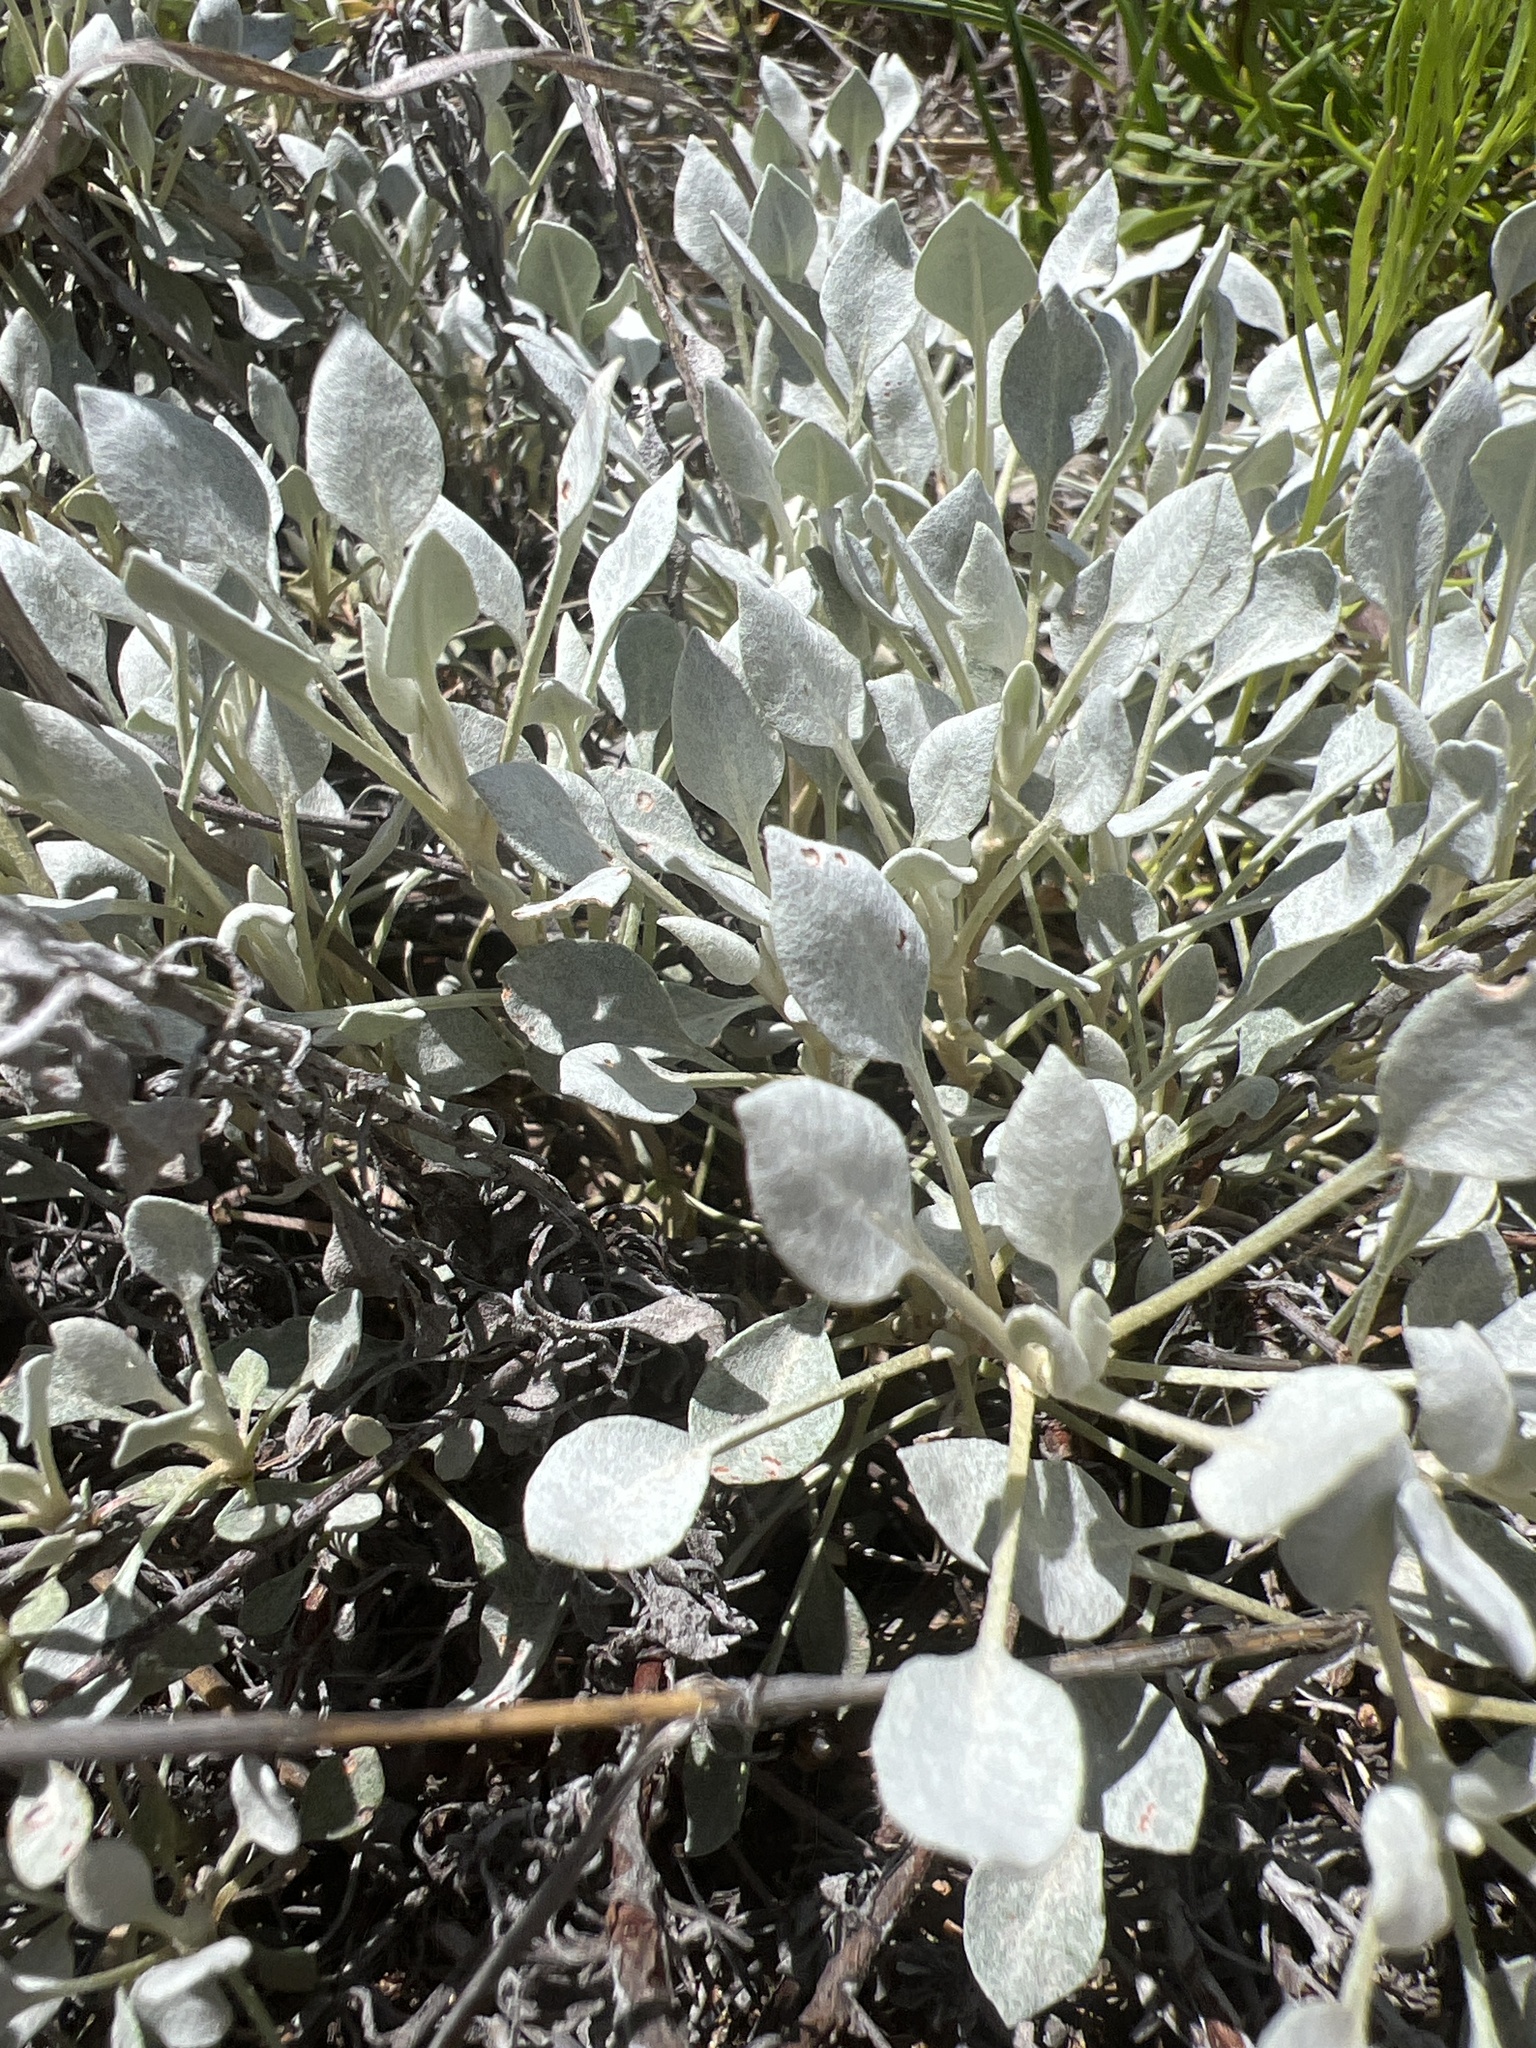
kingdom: Plantae
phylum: Tracheophyta
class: Magnoliopsida
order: Caryophyllales
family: Polygonaceae
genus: Eriogonum
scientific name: Eriogonum graniticum
